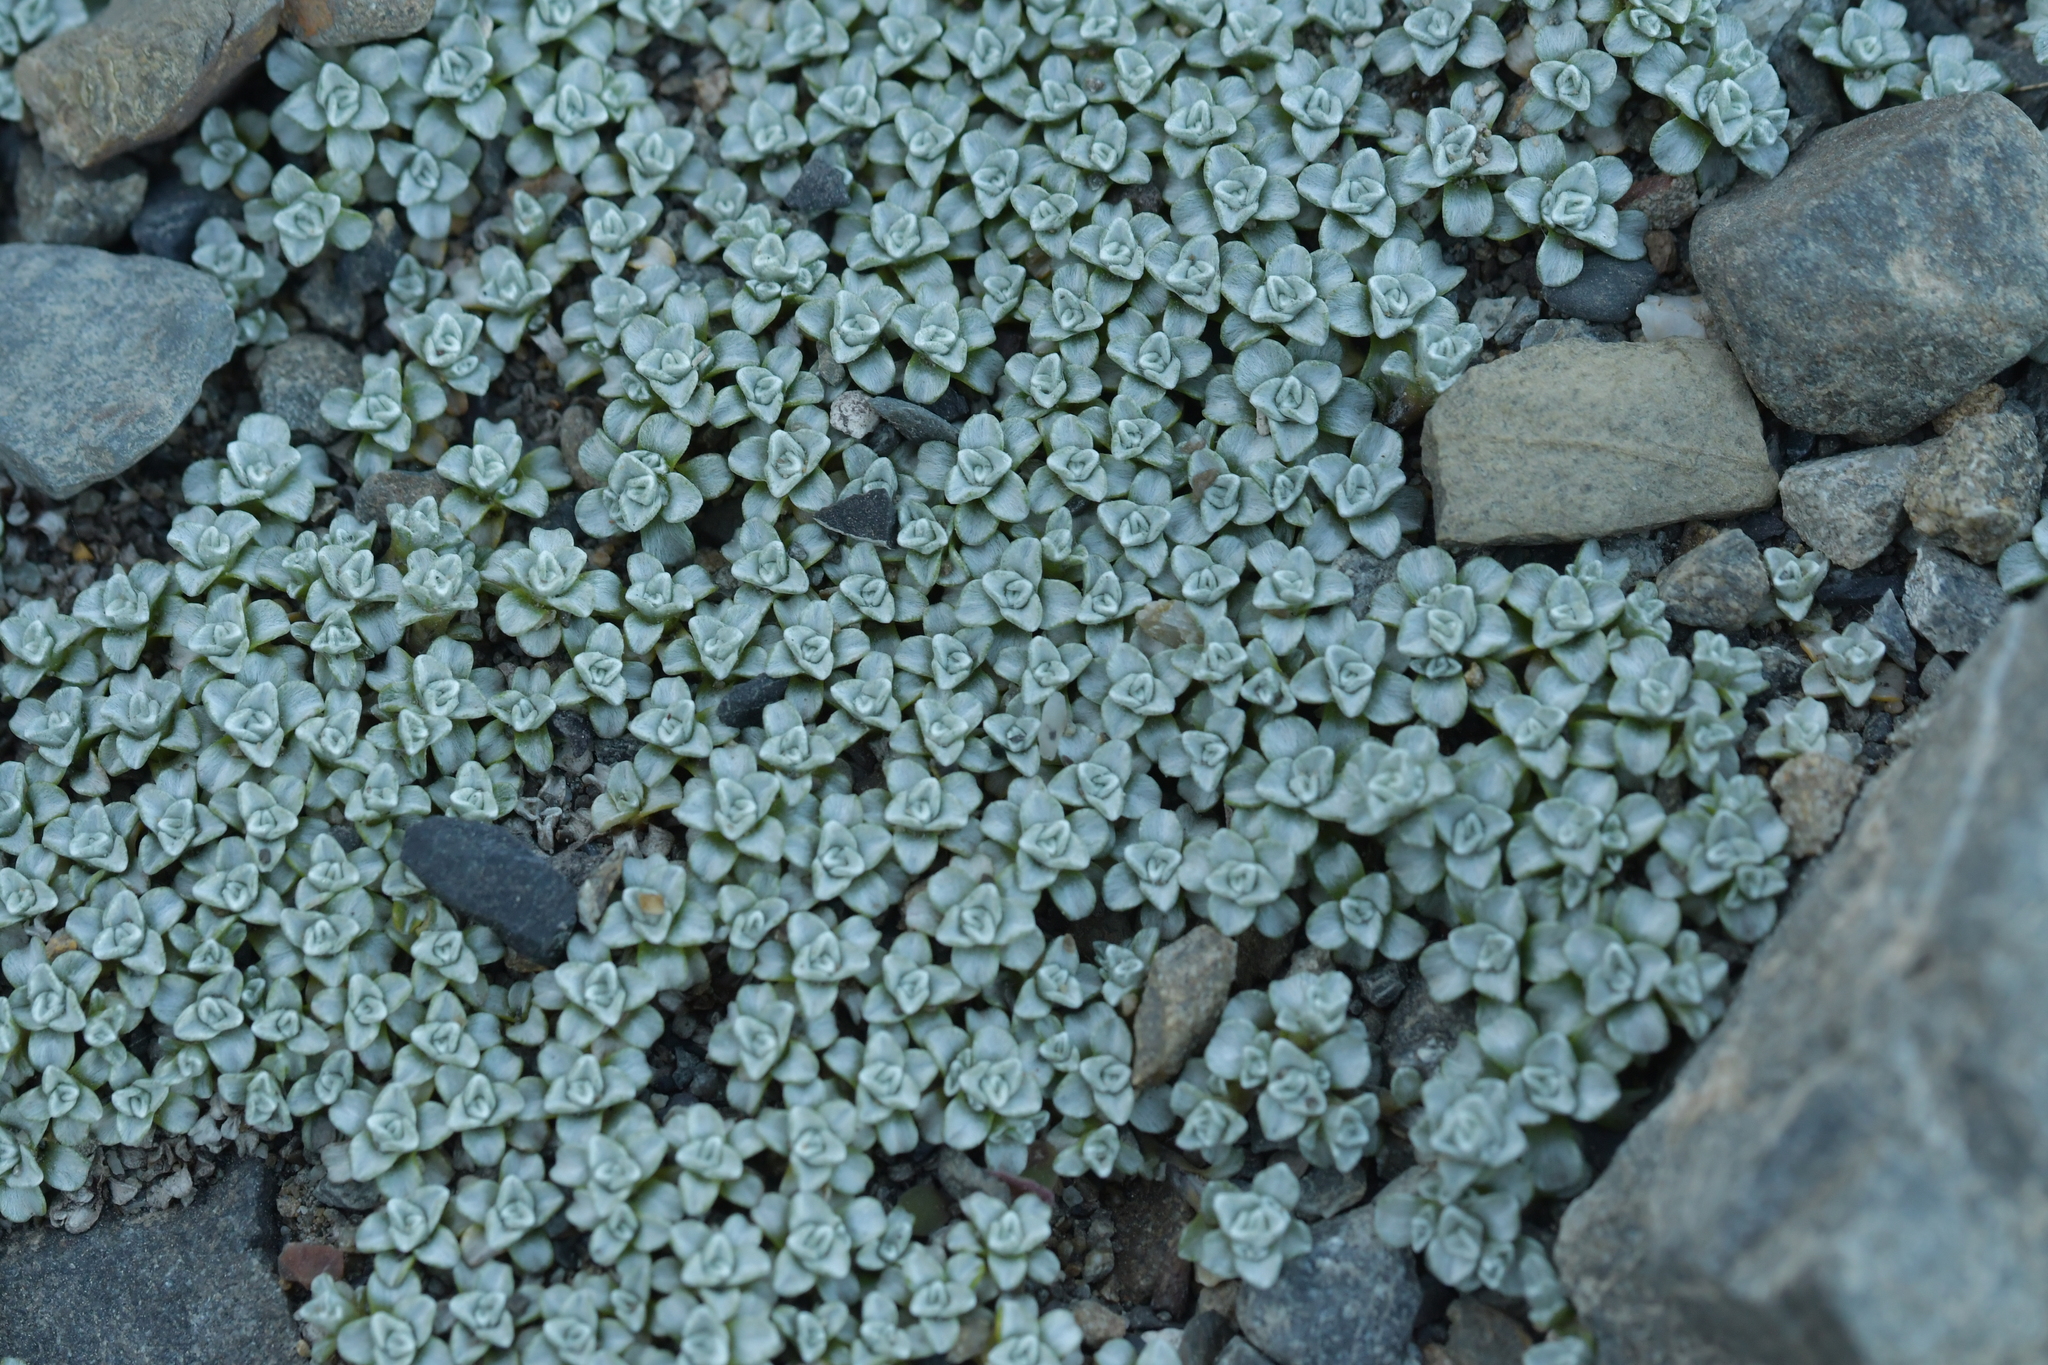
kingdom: Plantae
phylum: Tracheophyta
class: Magnoliopsida
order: Asterales
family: Asteraceae
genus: Raoulia
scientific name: Raoulia hookeri
